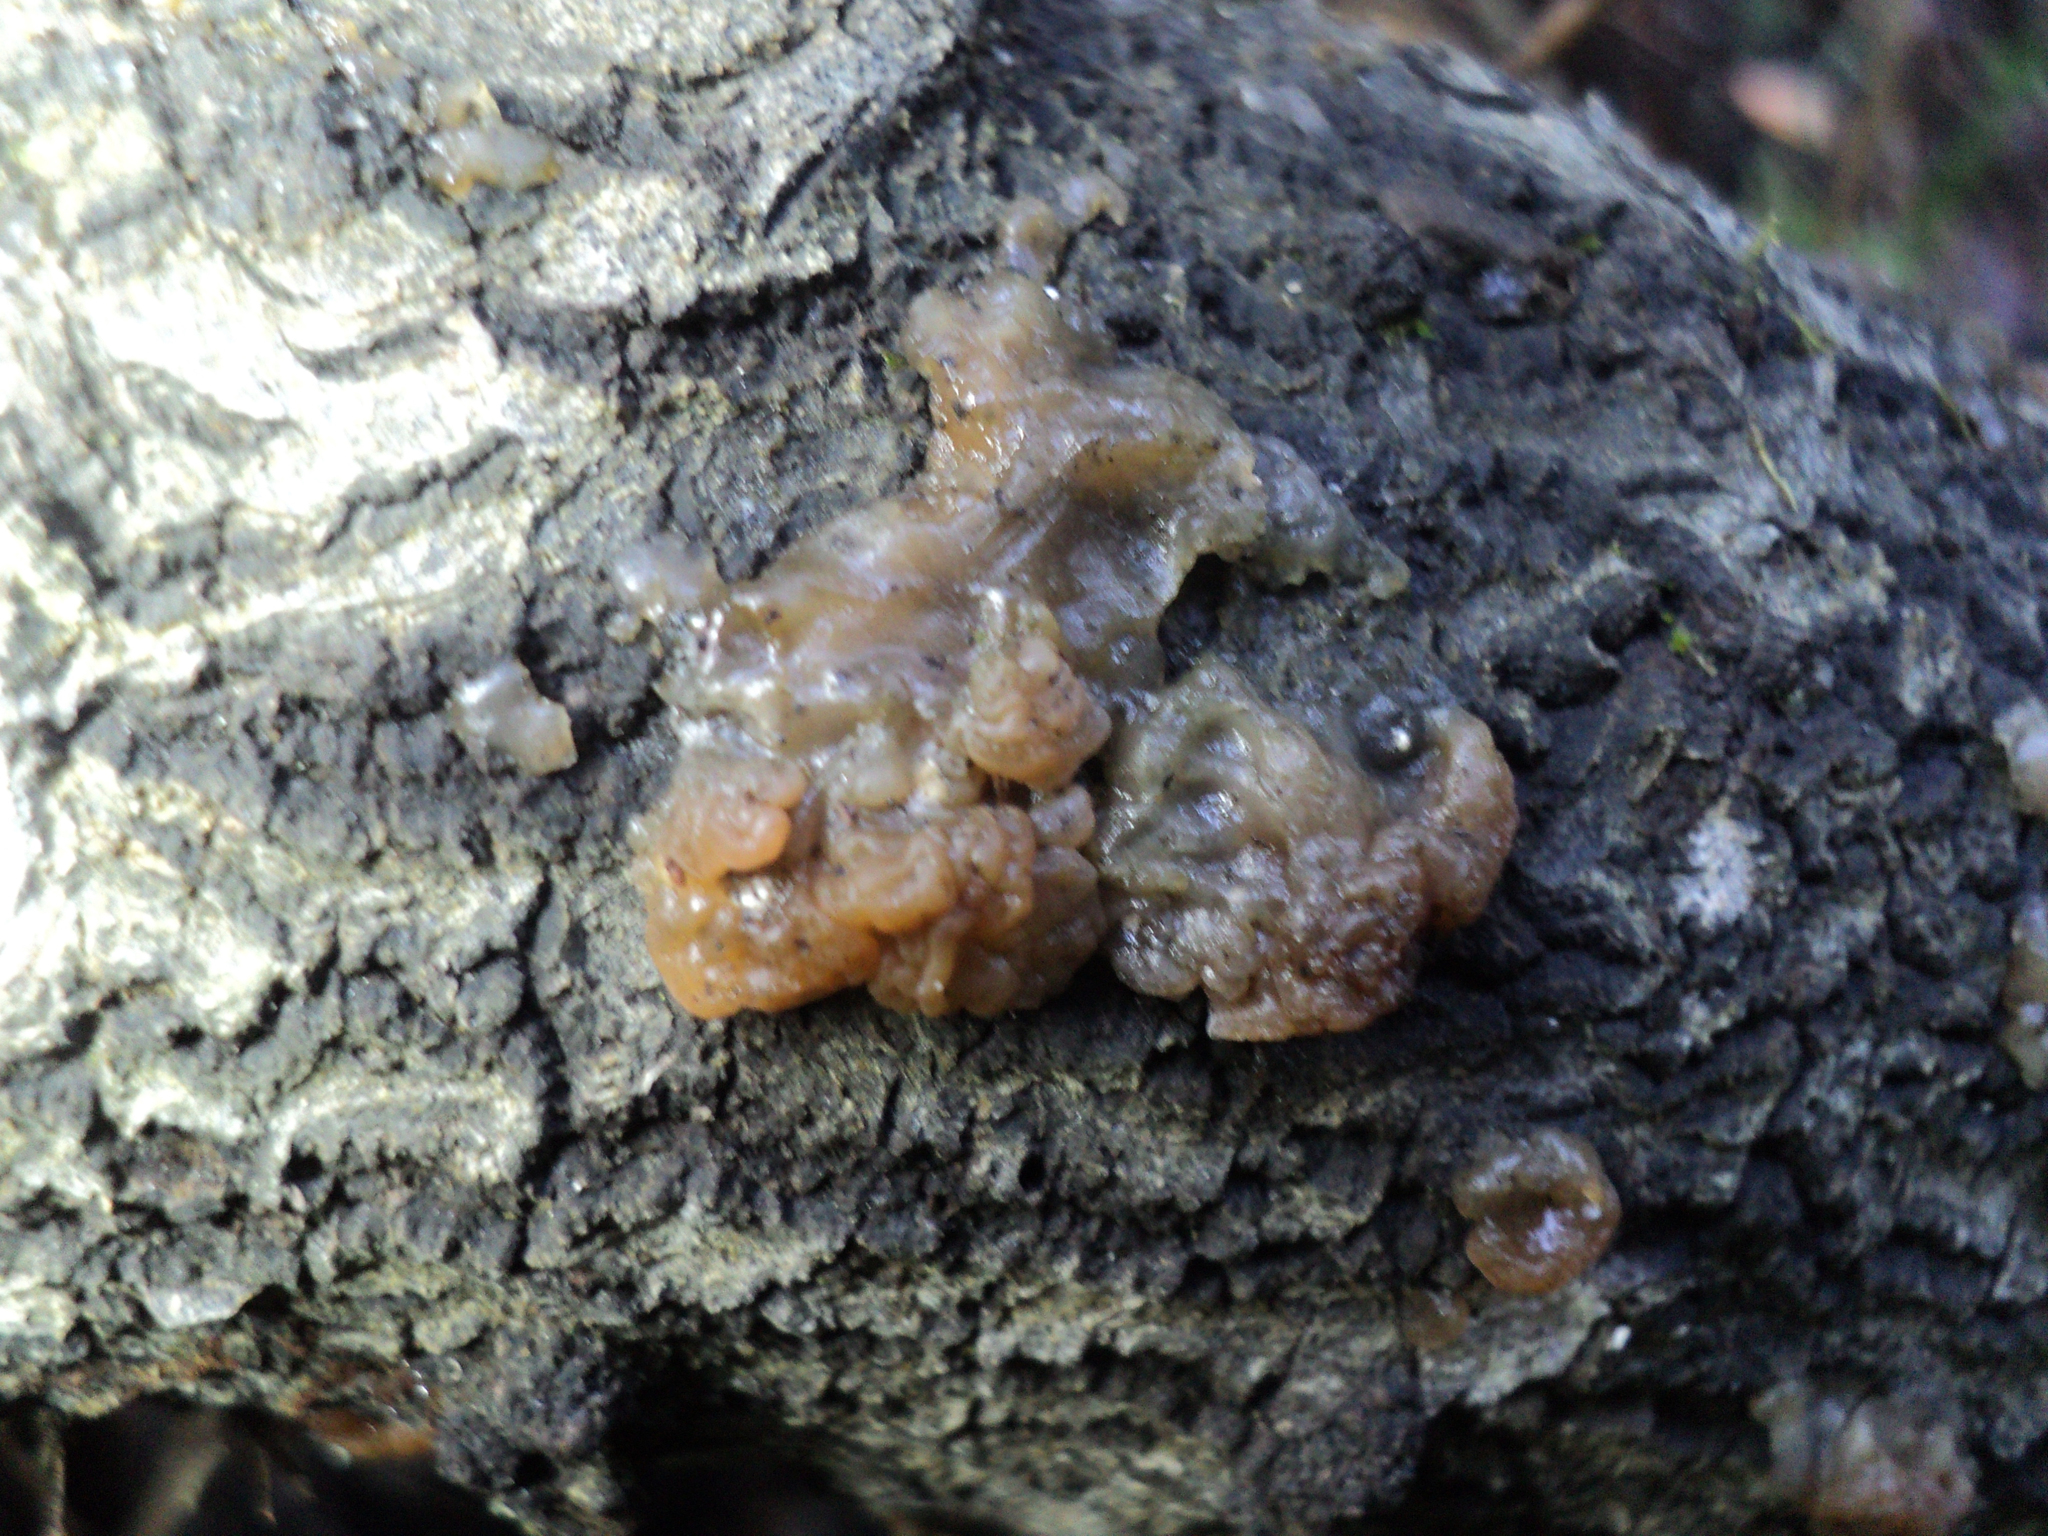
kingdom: Fungi
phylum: Basidiomycota
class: Agaricomycetes
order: Auriculariales
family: Hyaloriaceae
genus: Myxarium
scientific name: Myxarium nucleatum
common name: Crystal brain fungus
